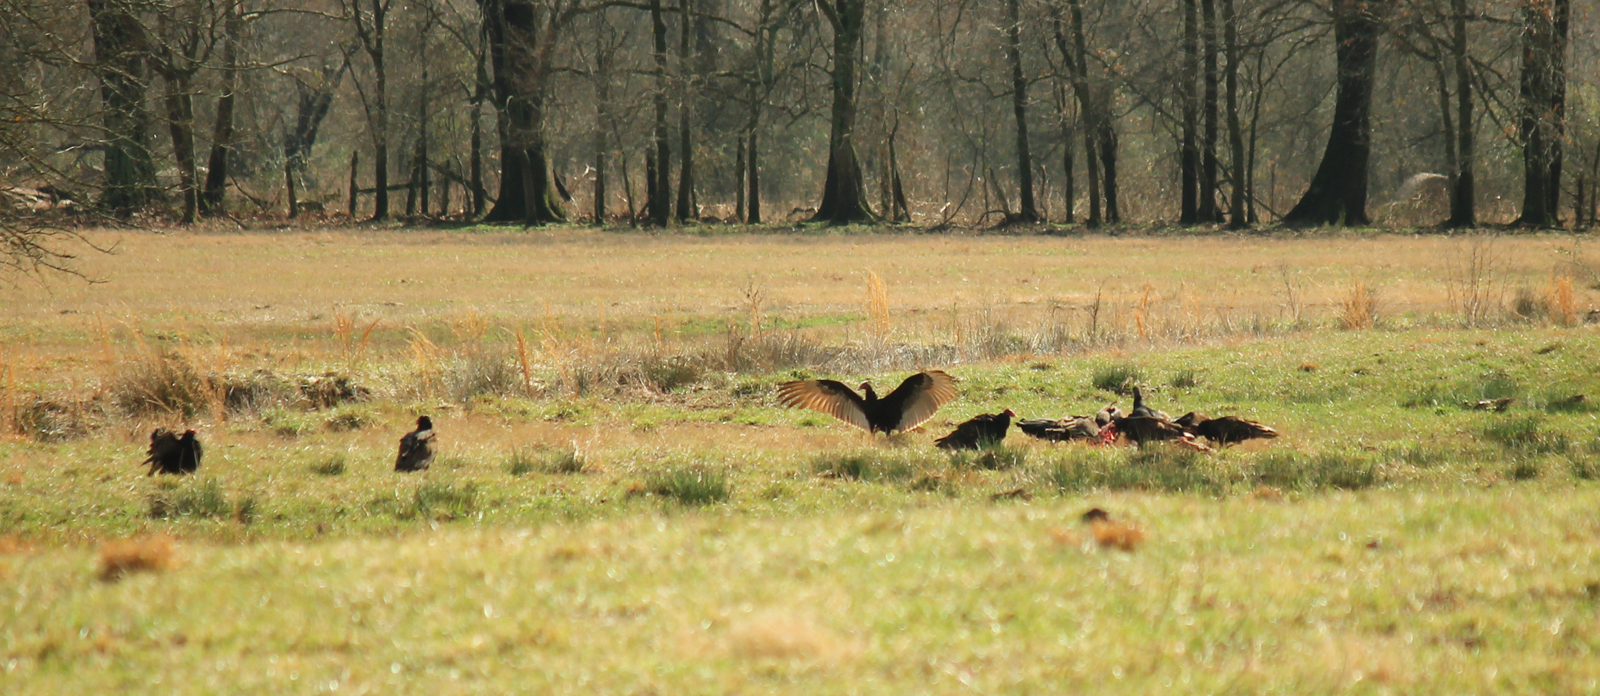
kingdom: Animalia
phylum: Chordata
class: Aves
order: Accipitriformes
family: Cathartidae
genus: Cathartes
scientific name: Cathartes aura
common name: Turkey vulture
